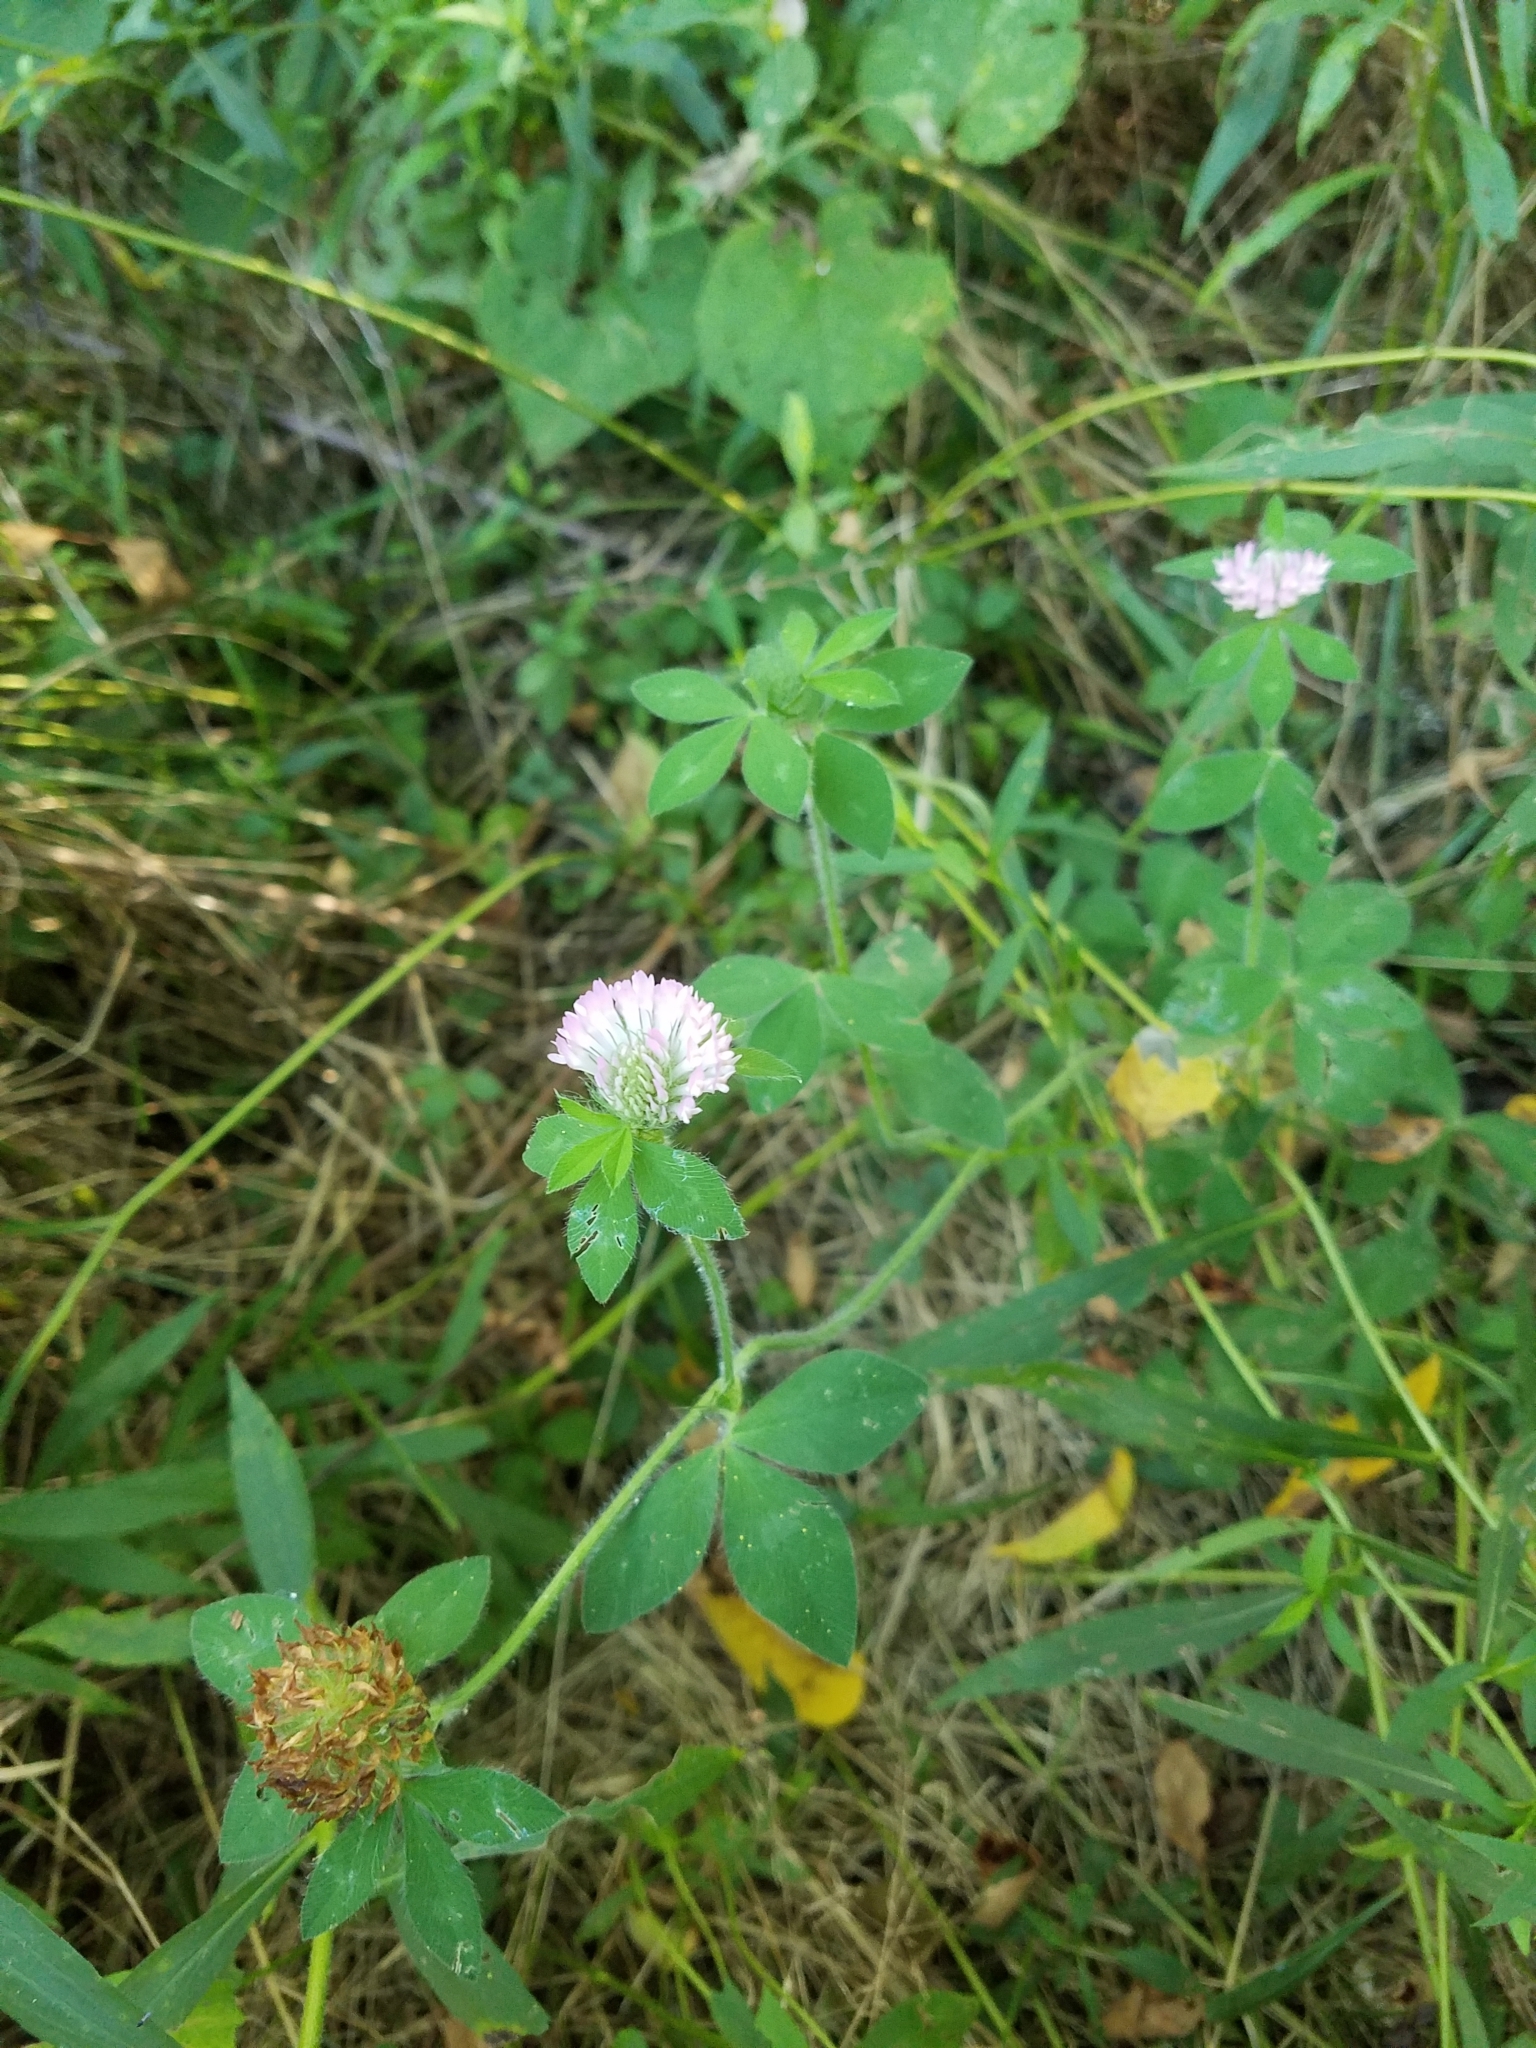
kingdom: Plantae
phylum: Tracheophyta
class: Magnoliopsida
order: Fabales
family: Fabaceae
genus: Trifolium
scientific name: Trifolium pratense
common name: Red clover
